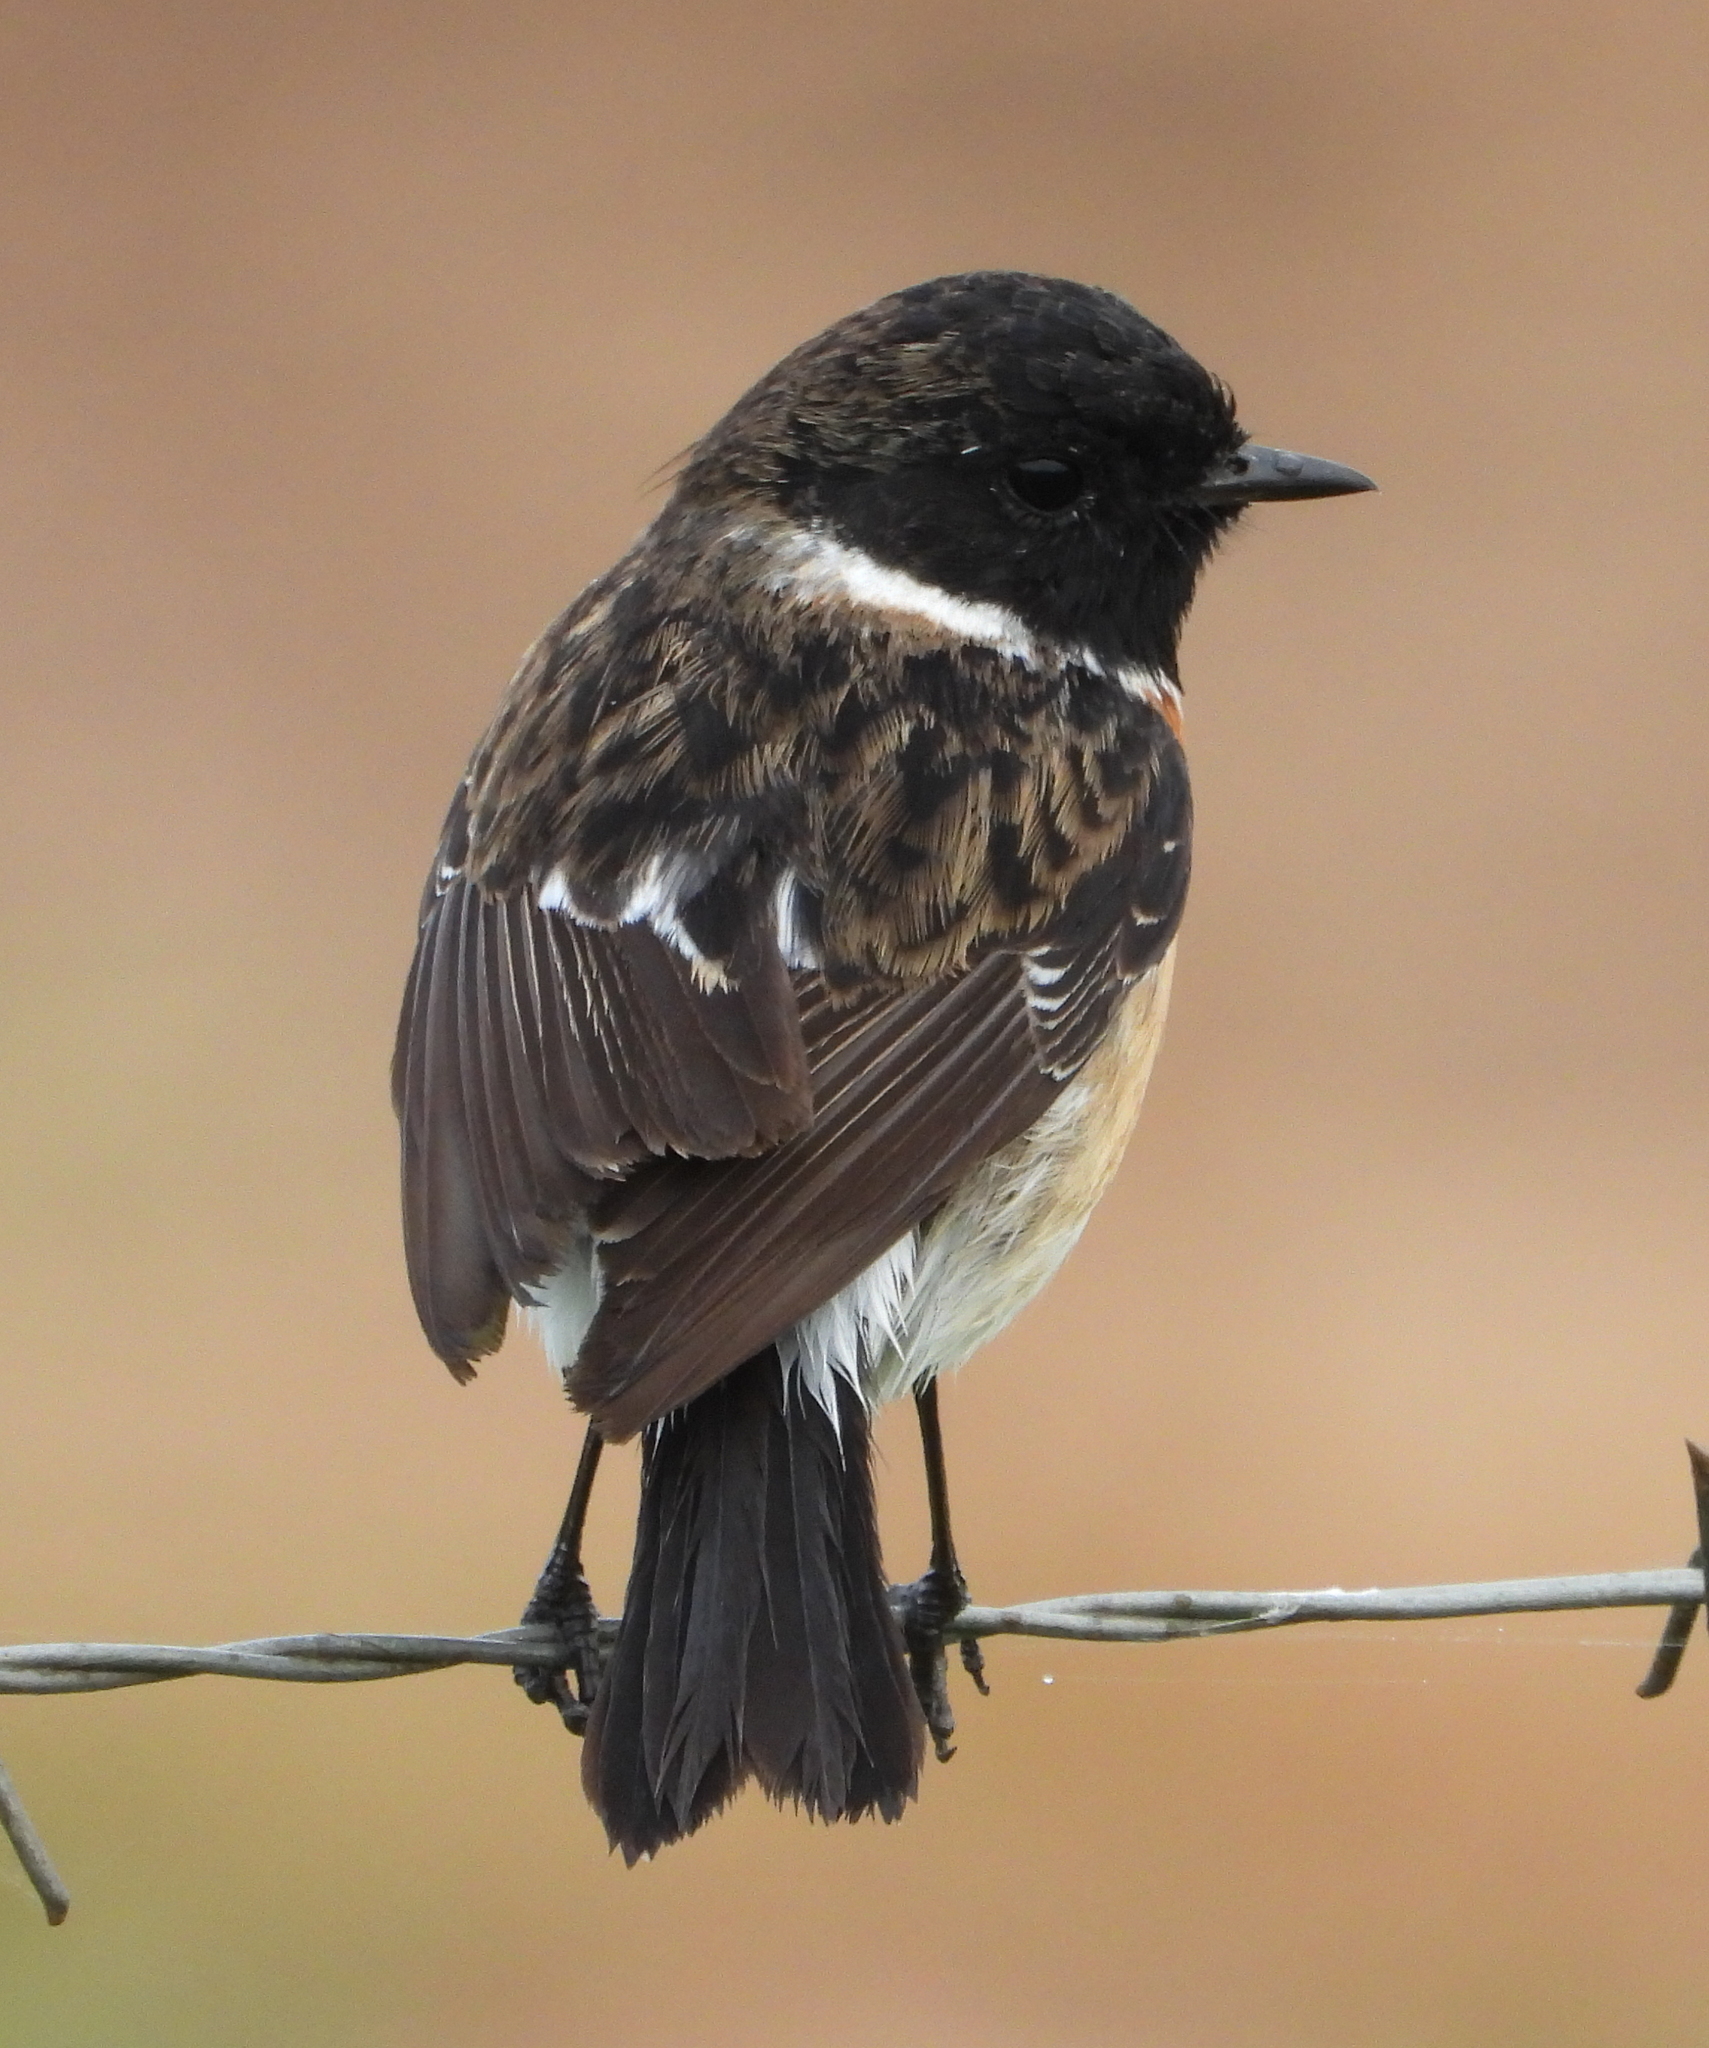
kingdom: Animalia
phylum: Chordata
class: Aves
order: Passeriformes
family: Muscicapidae
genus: Saxicola
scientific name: Saxicola torquatus
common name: African stonechat
